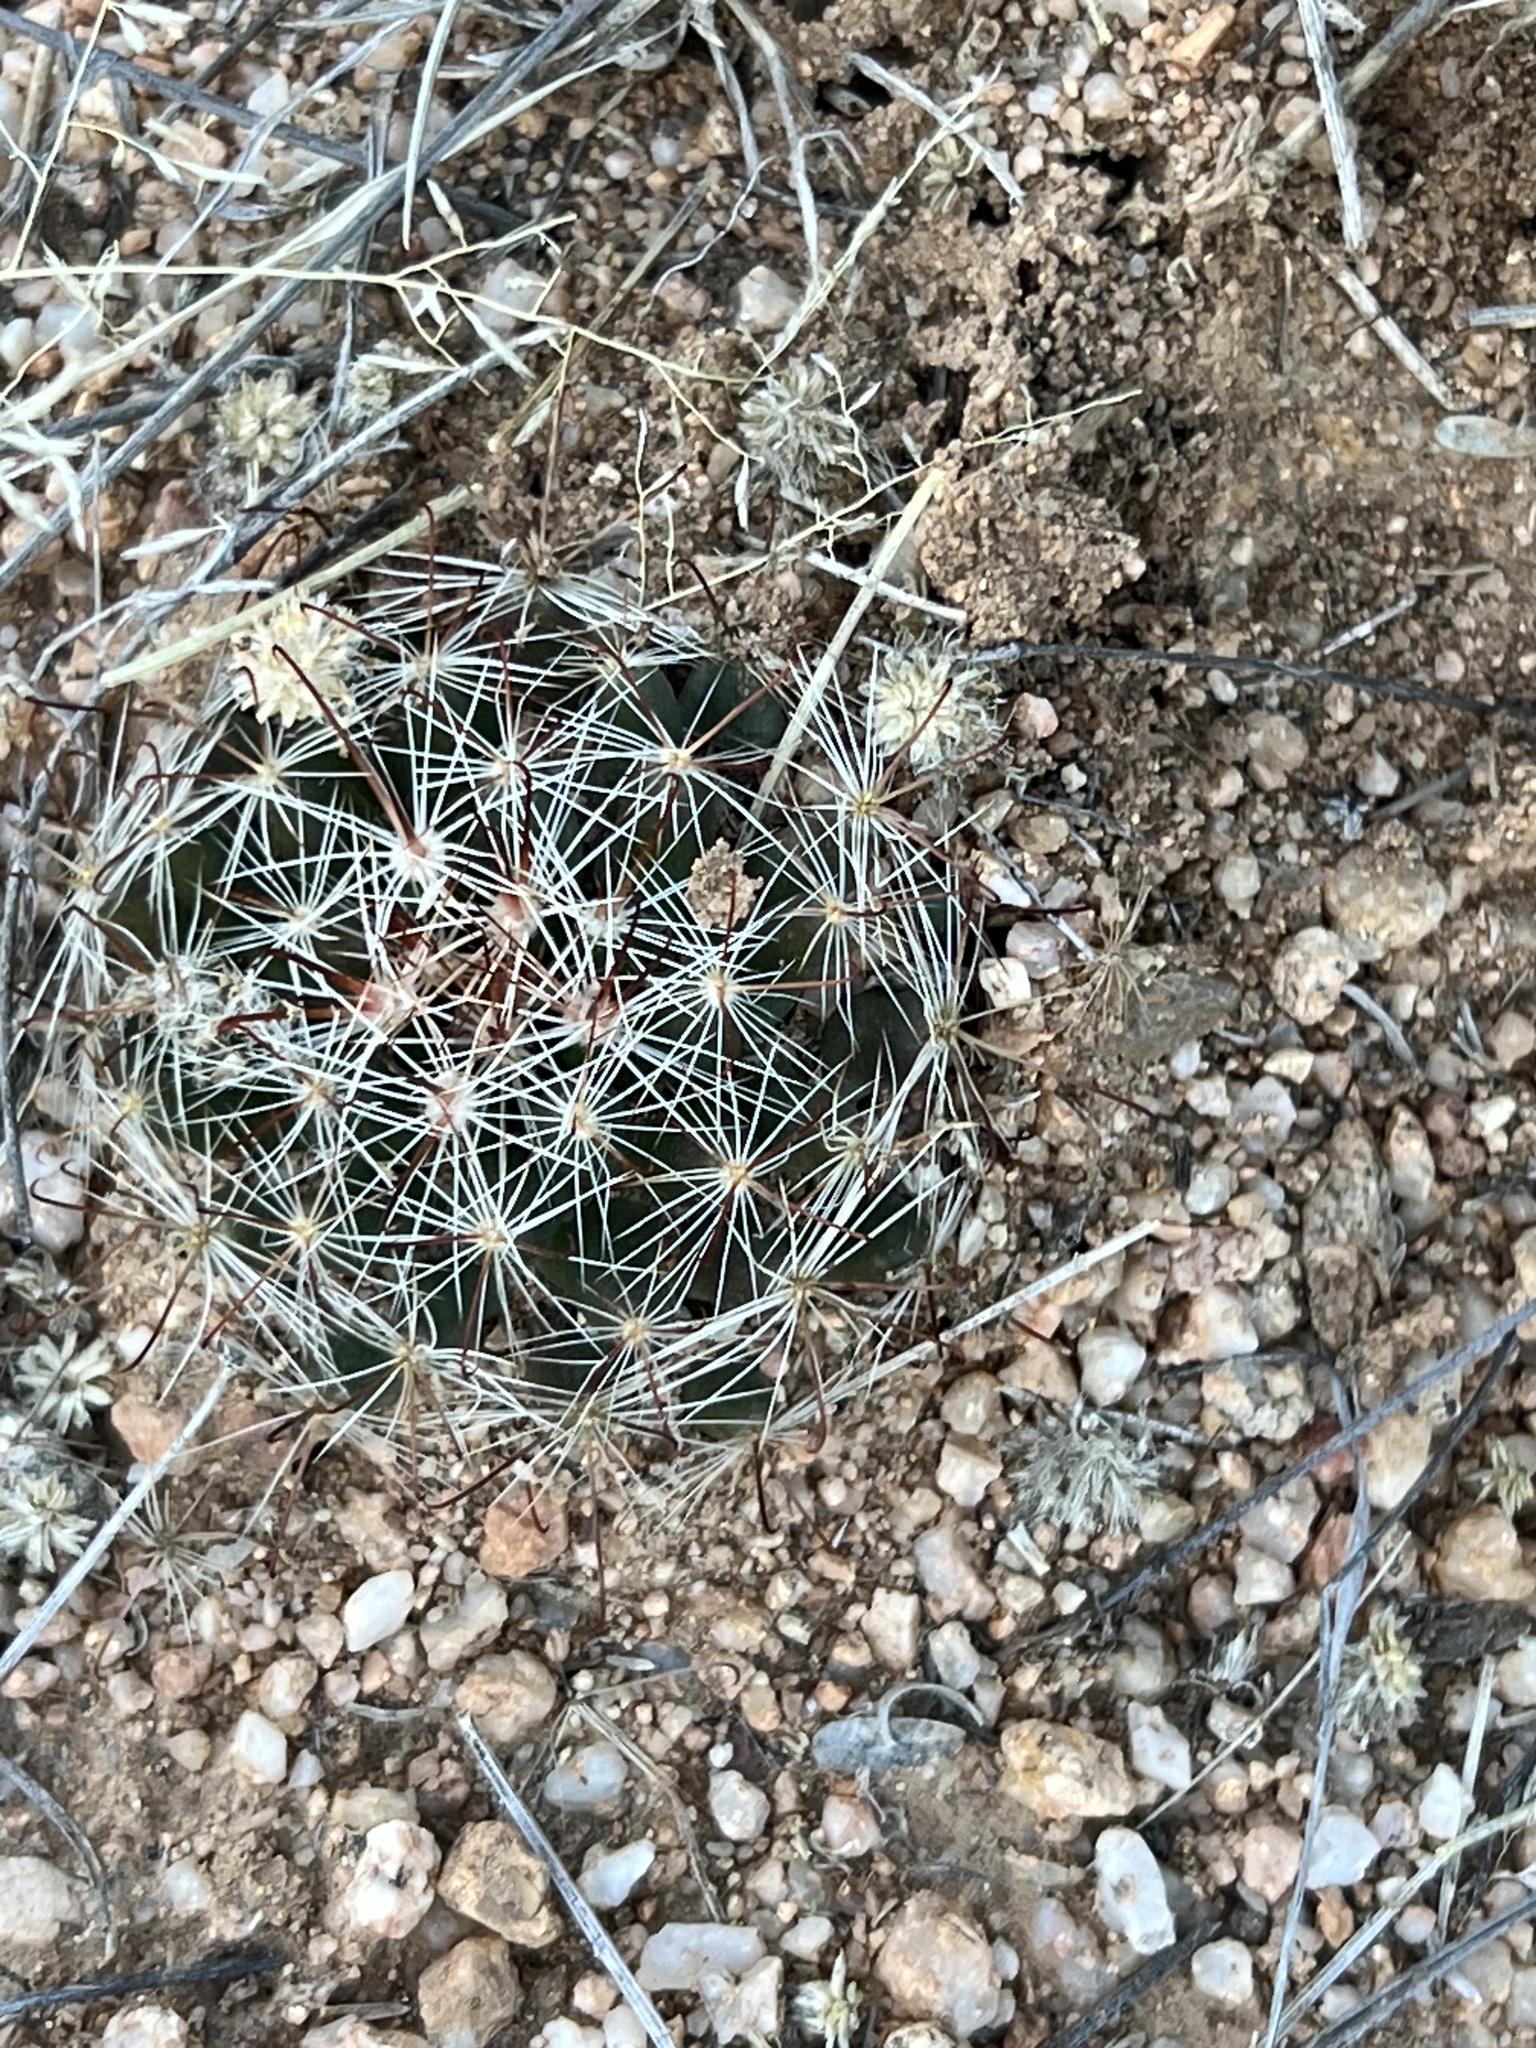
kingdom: Plantae
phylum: Tracheophyta
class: Magnoliopsida
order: Caryophyllales
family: Cactaceae
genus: Cochemiea
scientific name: Cochemiea wrightii
